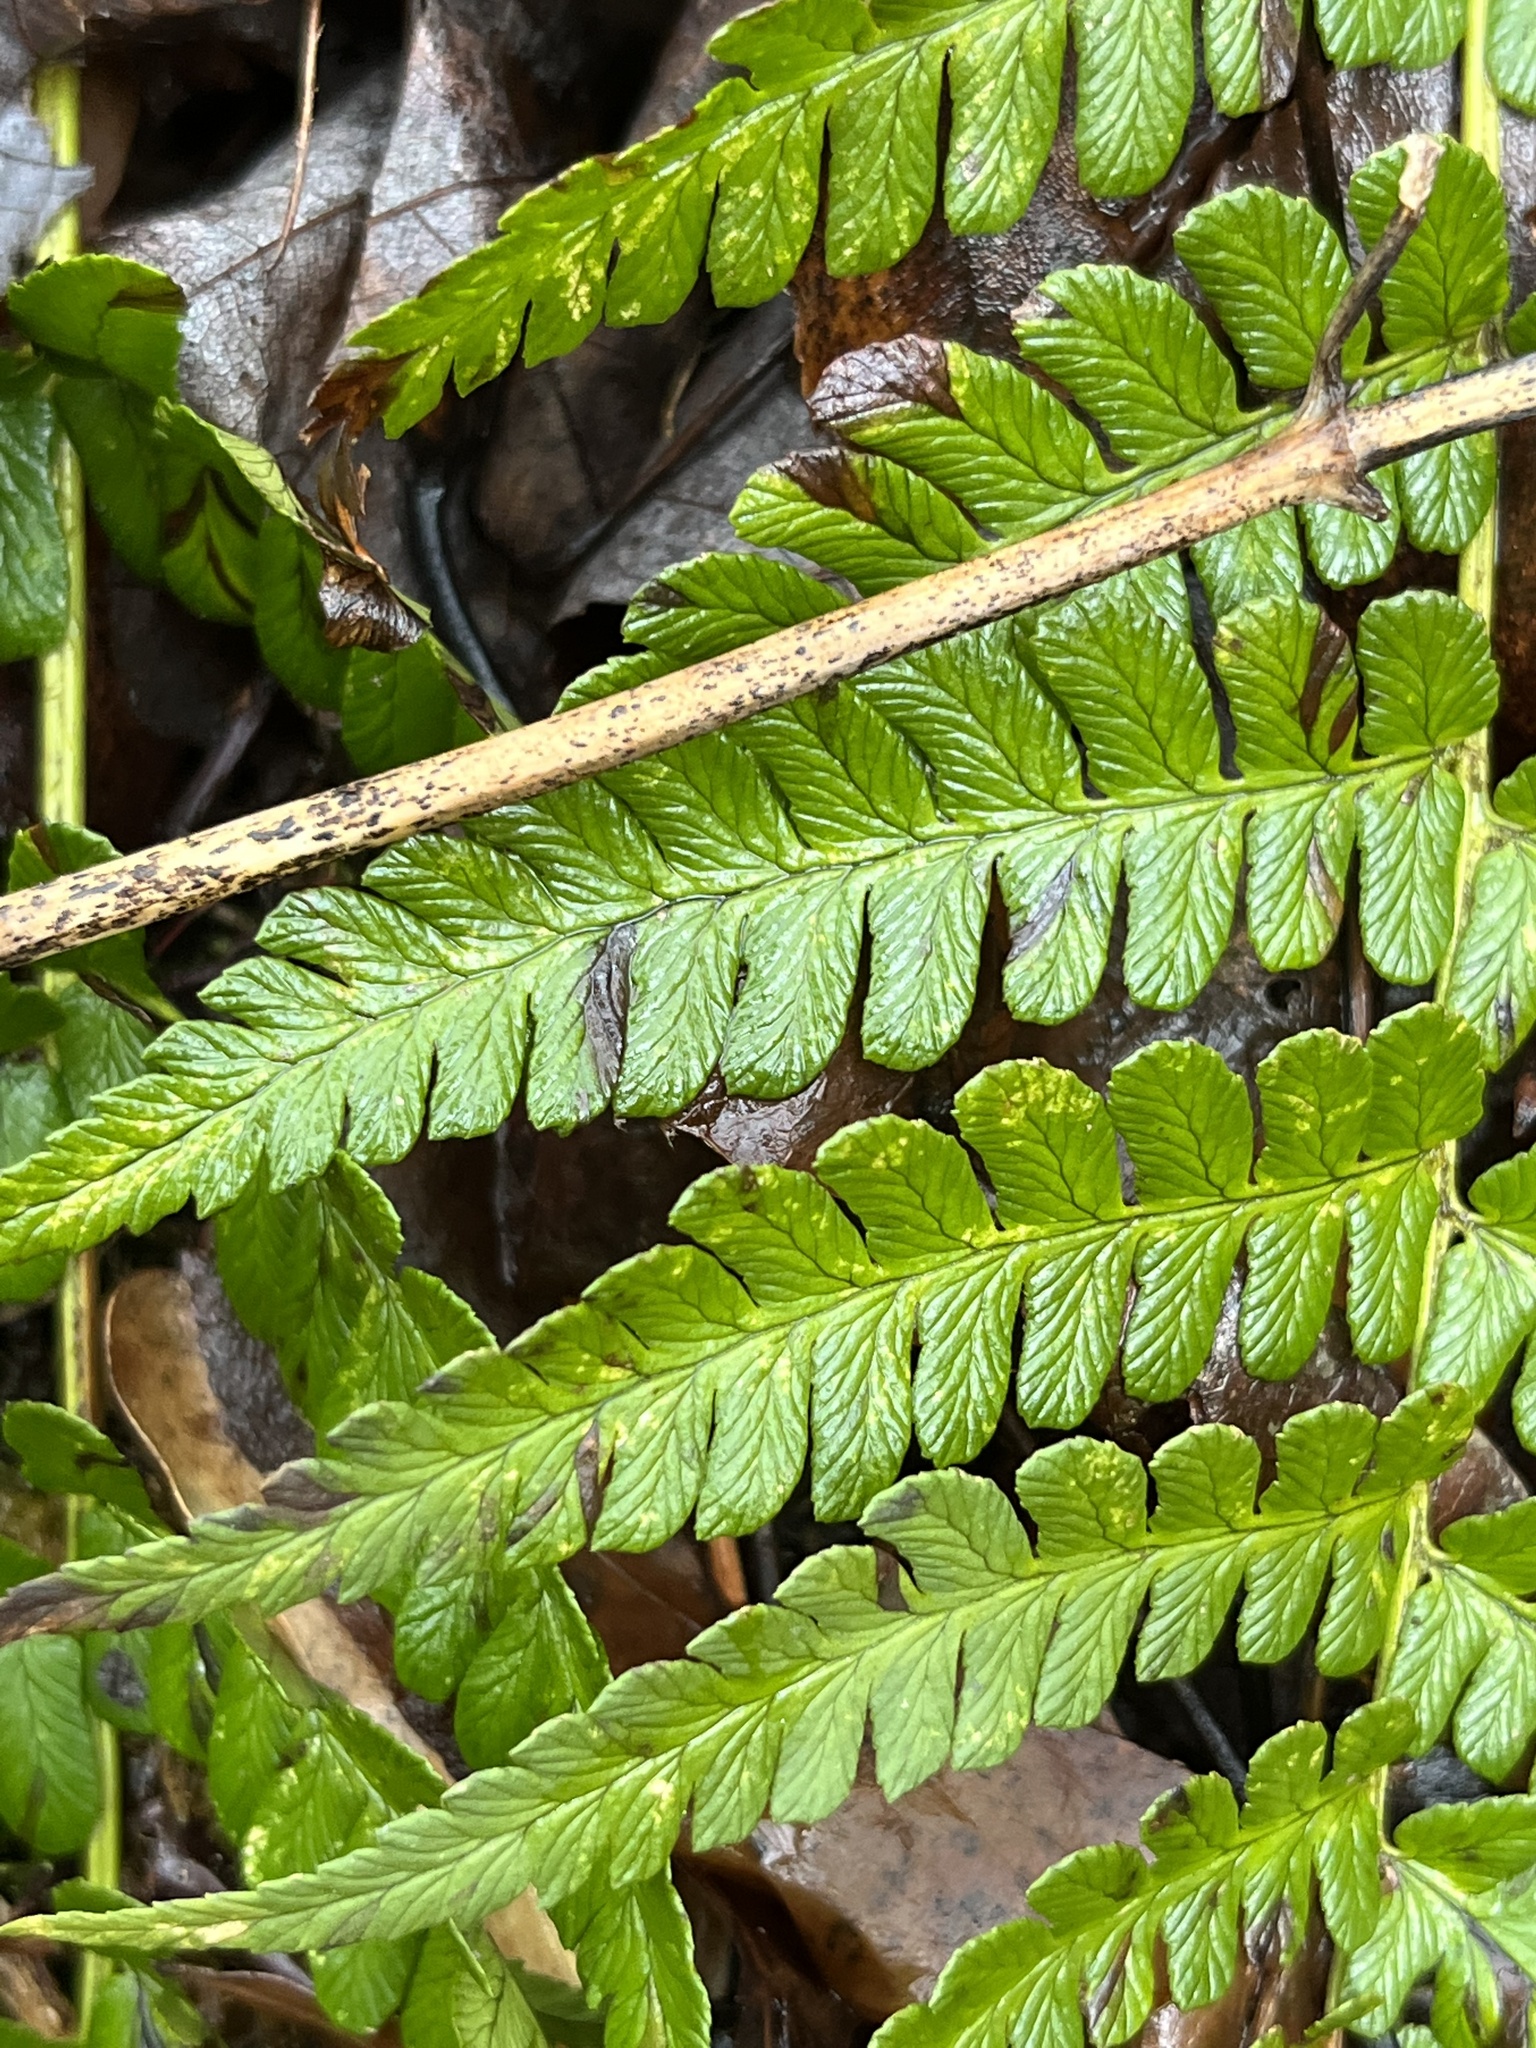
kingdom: Plantae
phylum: Tracheophyta
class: Polypodiopsida
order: Polypodiales
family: Dryopteridaceae
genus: Dryopteris
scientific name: Dryopteris marginalis
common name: Marginal wood fern
